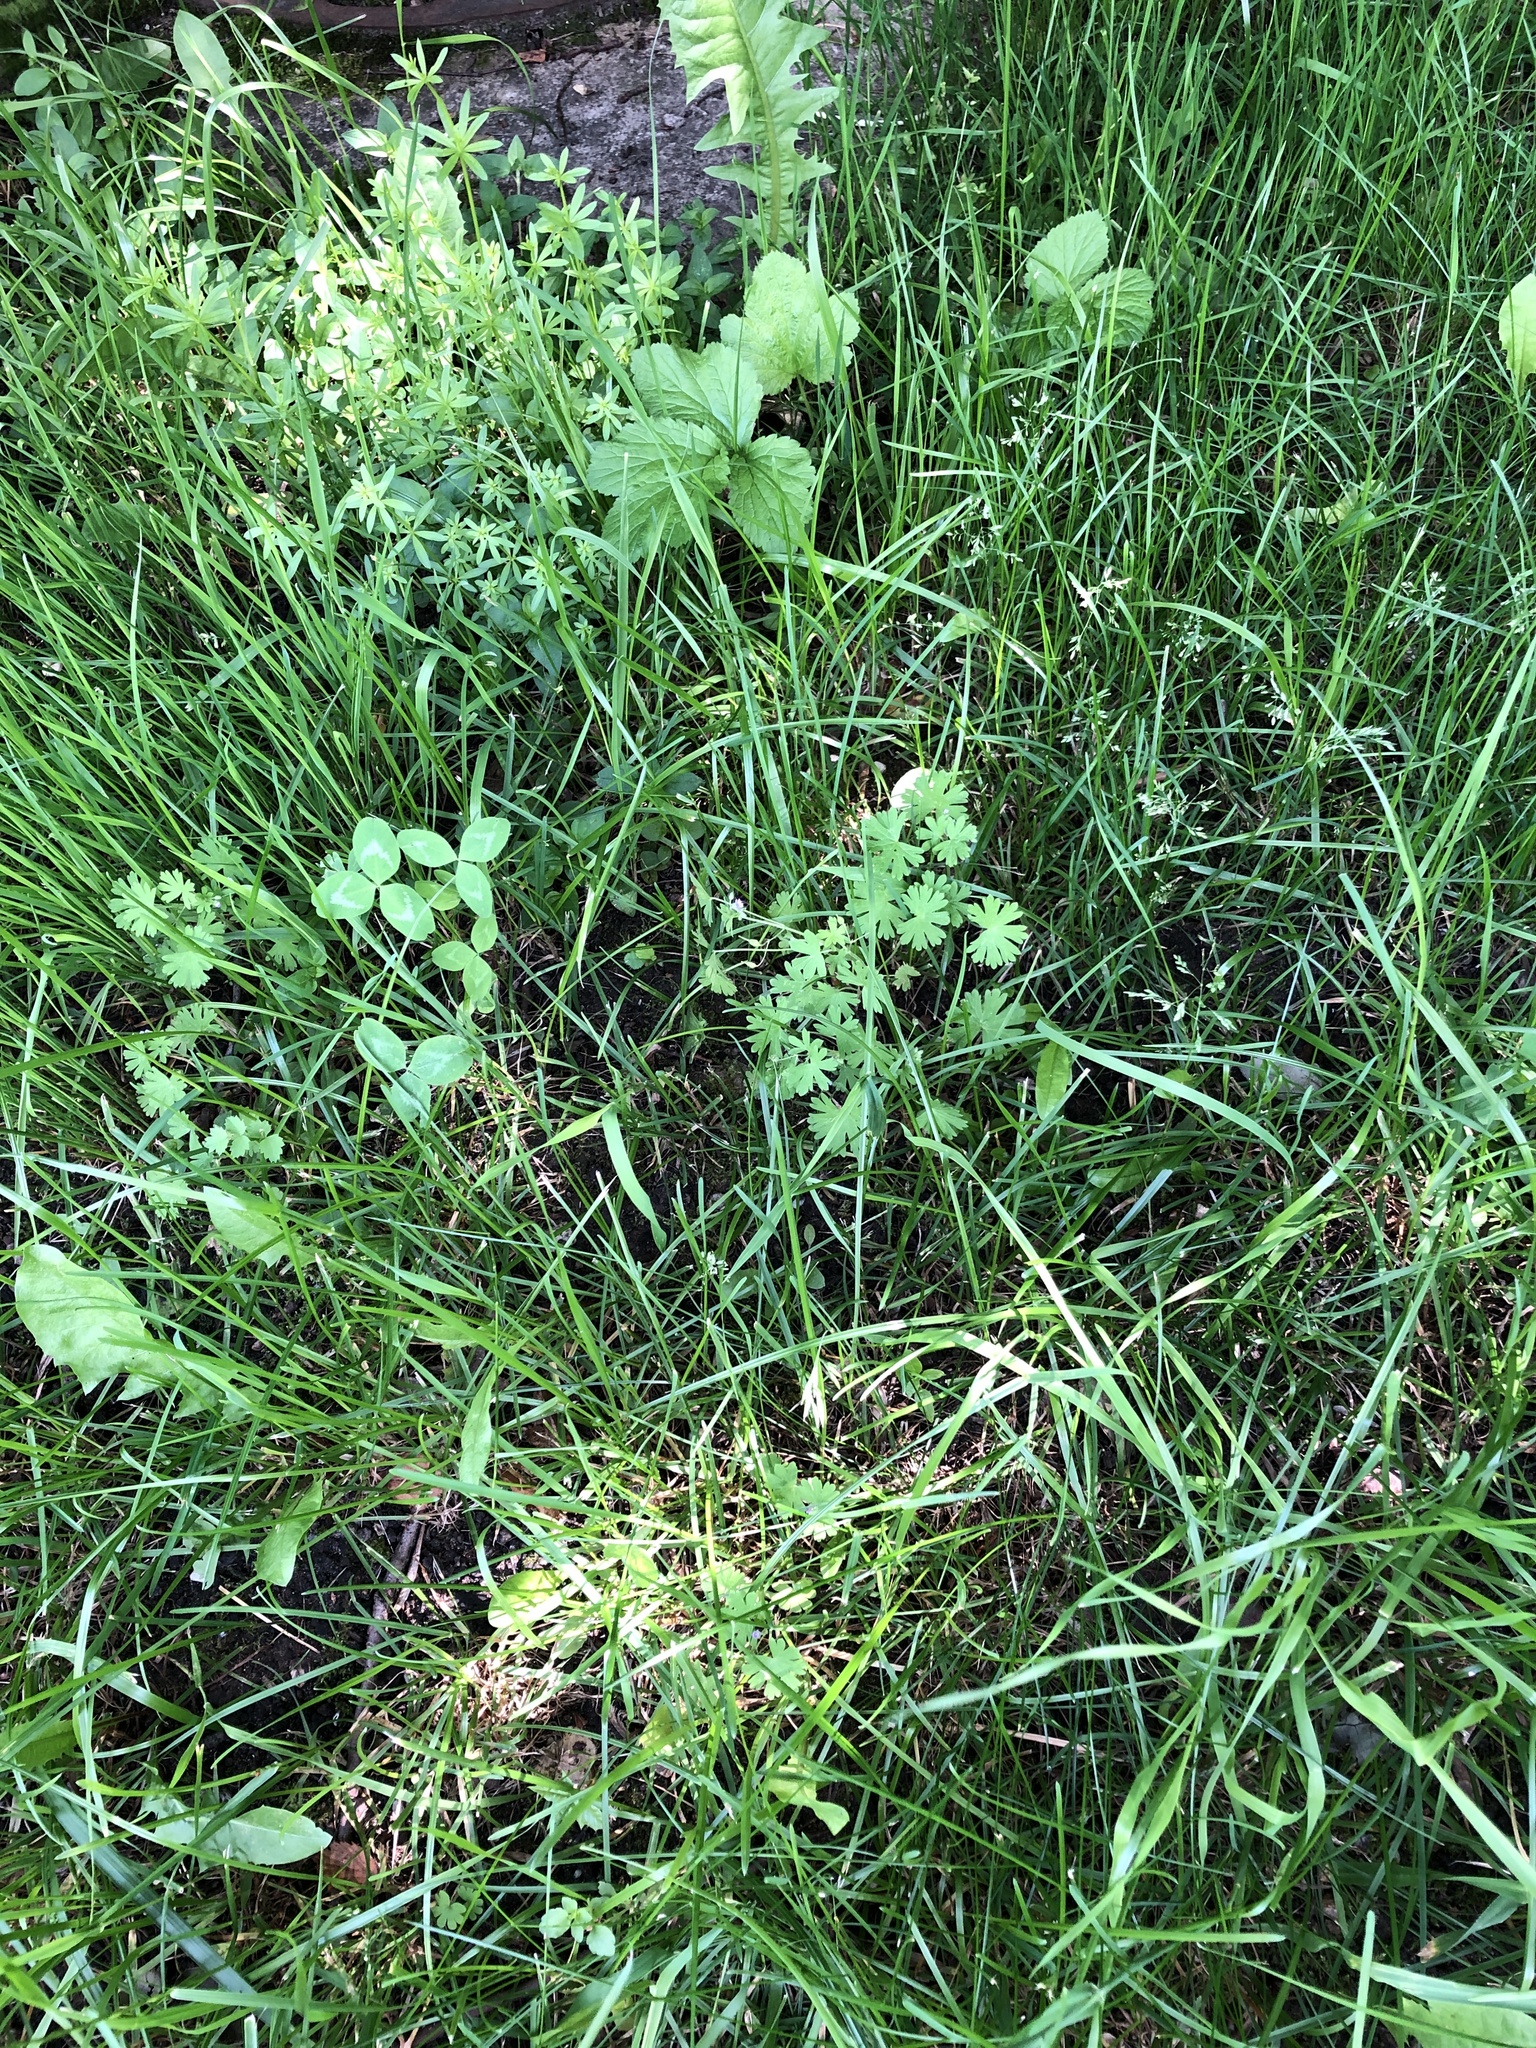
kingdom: Plantae
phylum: Tracheophyta
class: Magnoliopsida
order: Geraniales
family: Geraniaceae
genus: Geranium
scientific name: Geranium pusillum
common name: Small geranium
